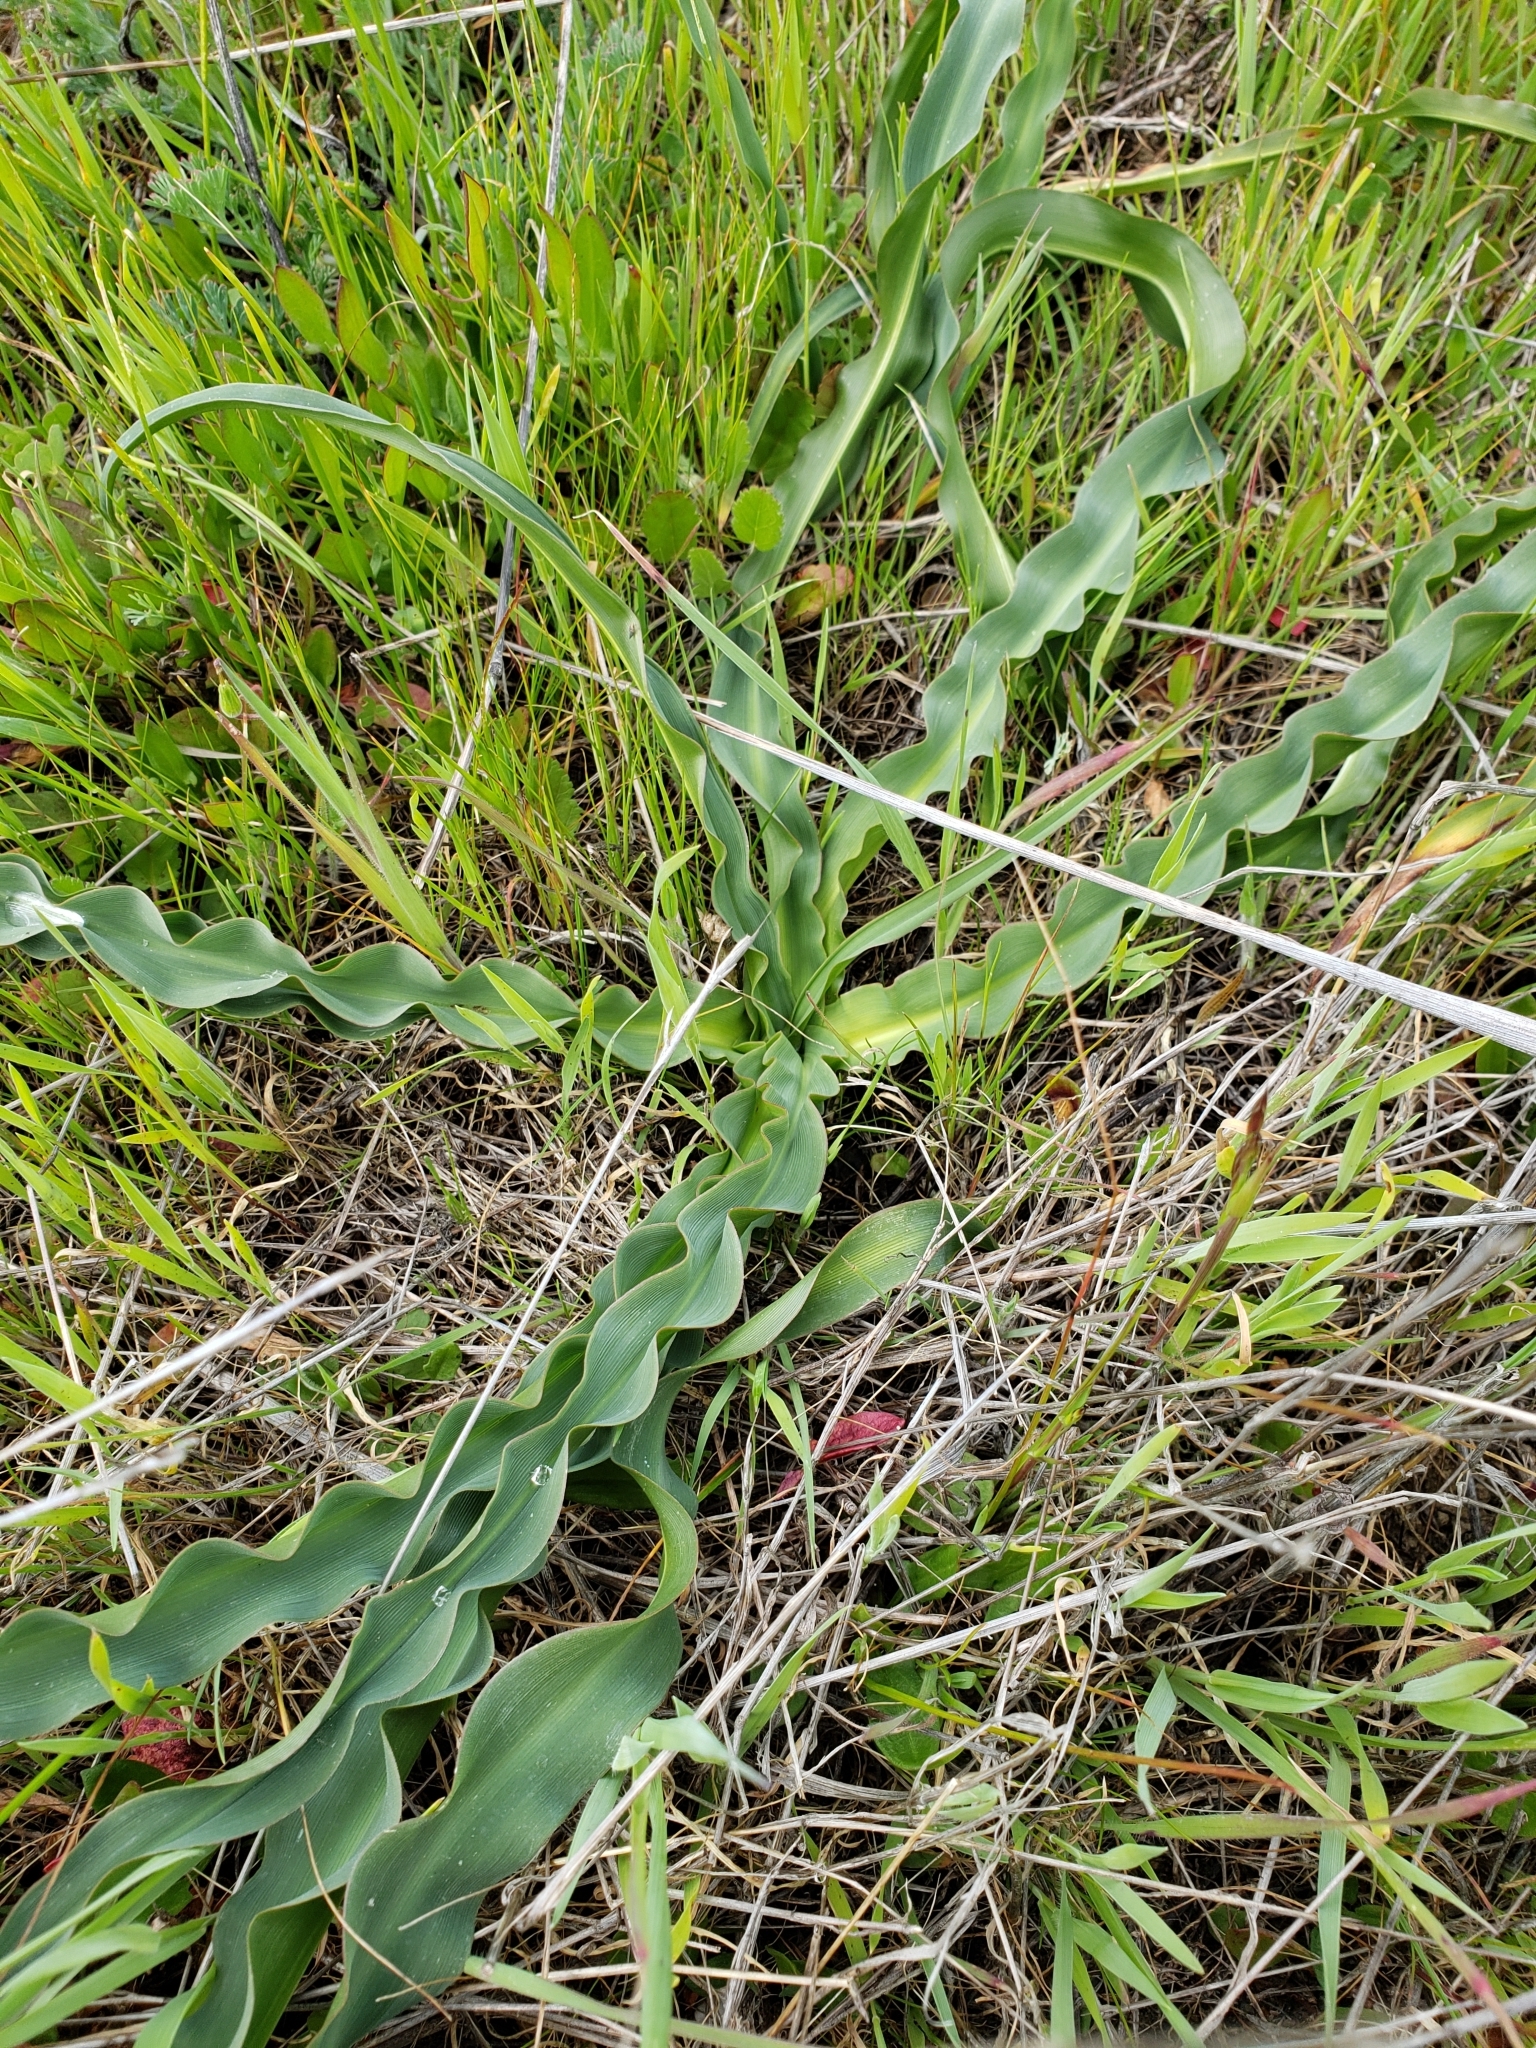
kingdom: Plantae
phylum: Tracheophyta
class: Liliopsida
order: Asparagales
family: Asparagaceae
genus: Chlorogalum
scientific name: Chlorogalum pomeridianum
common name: Amole
